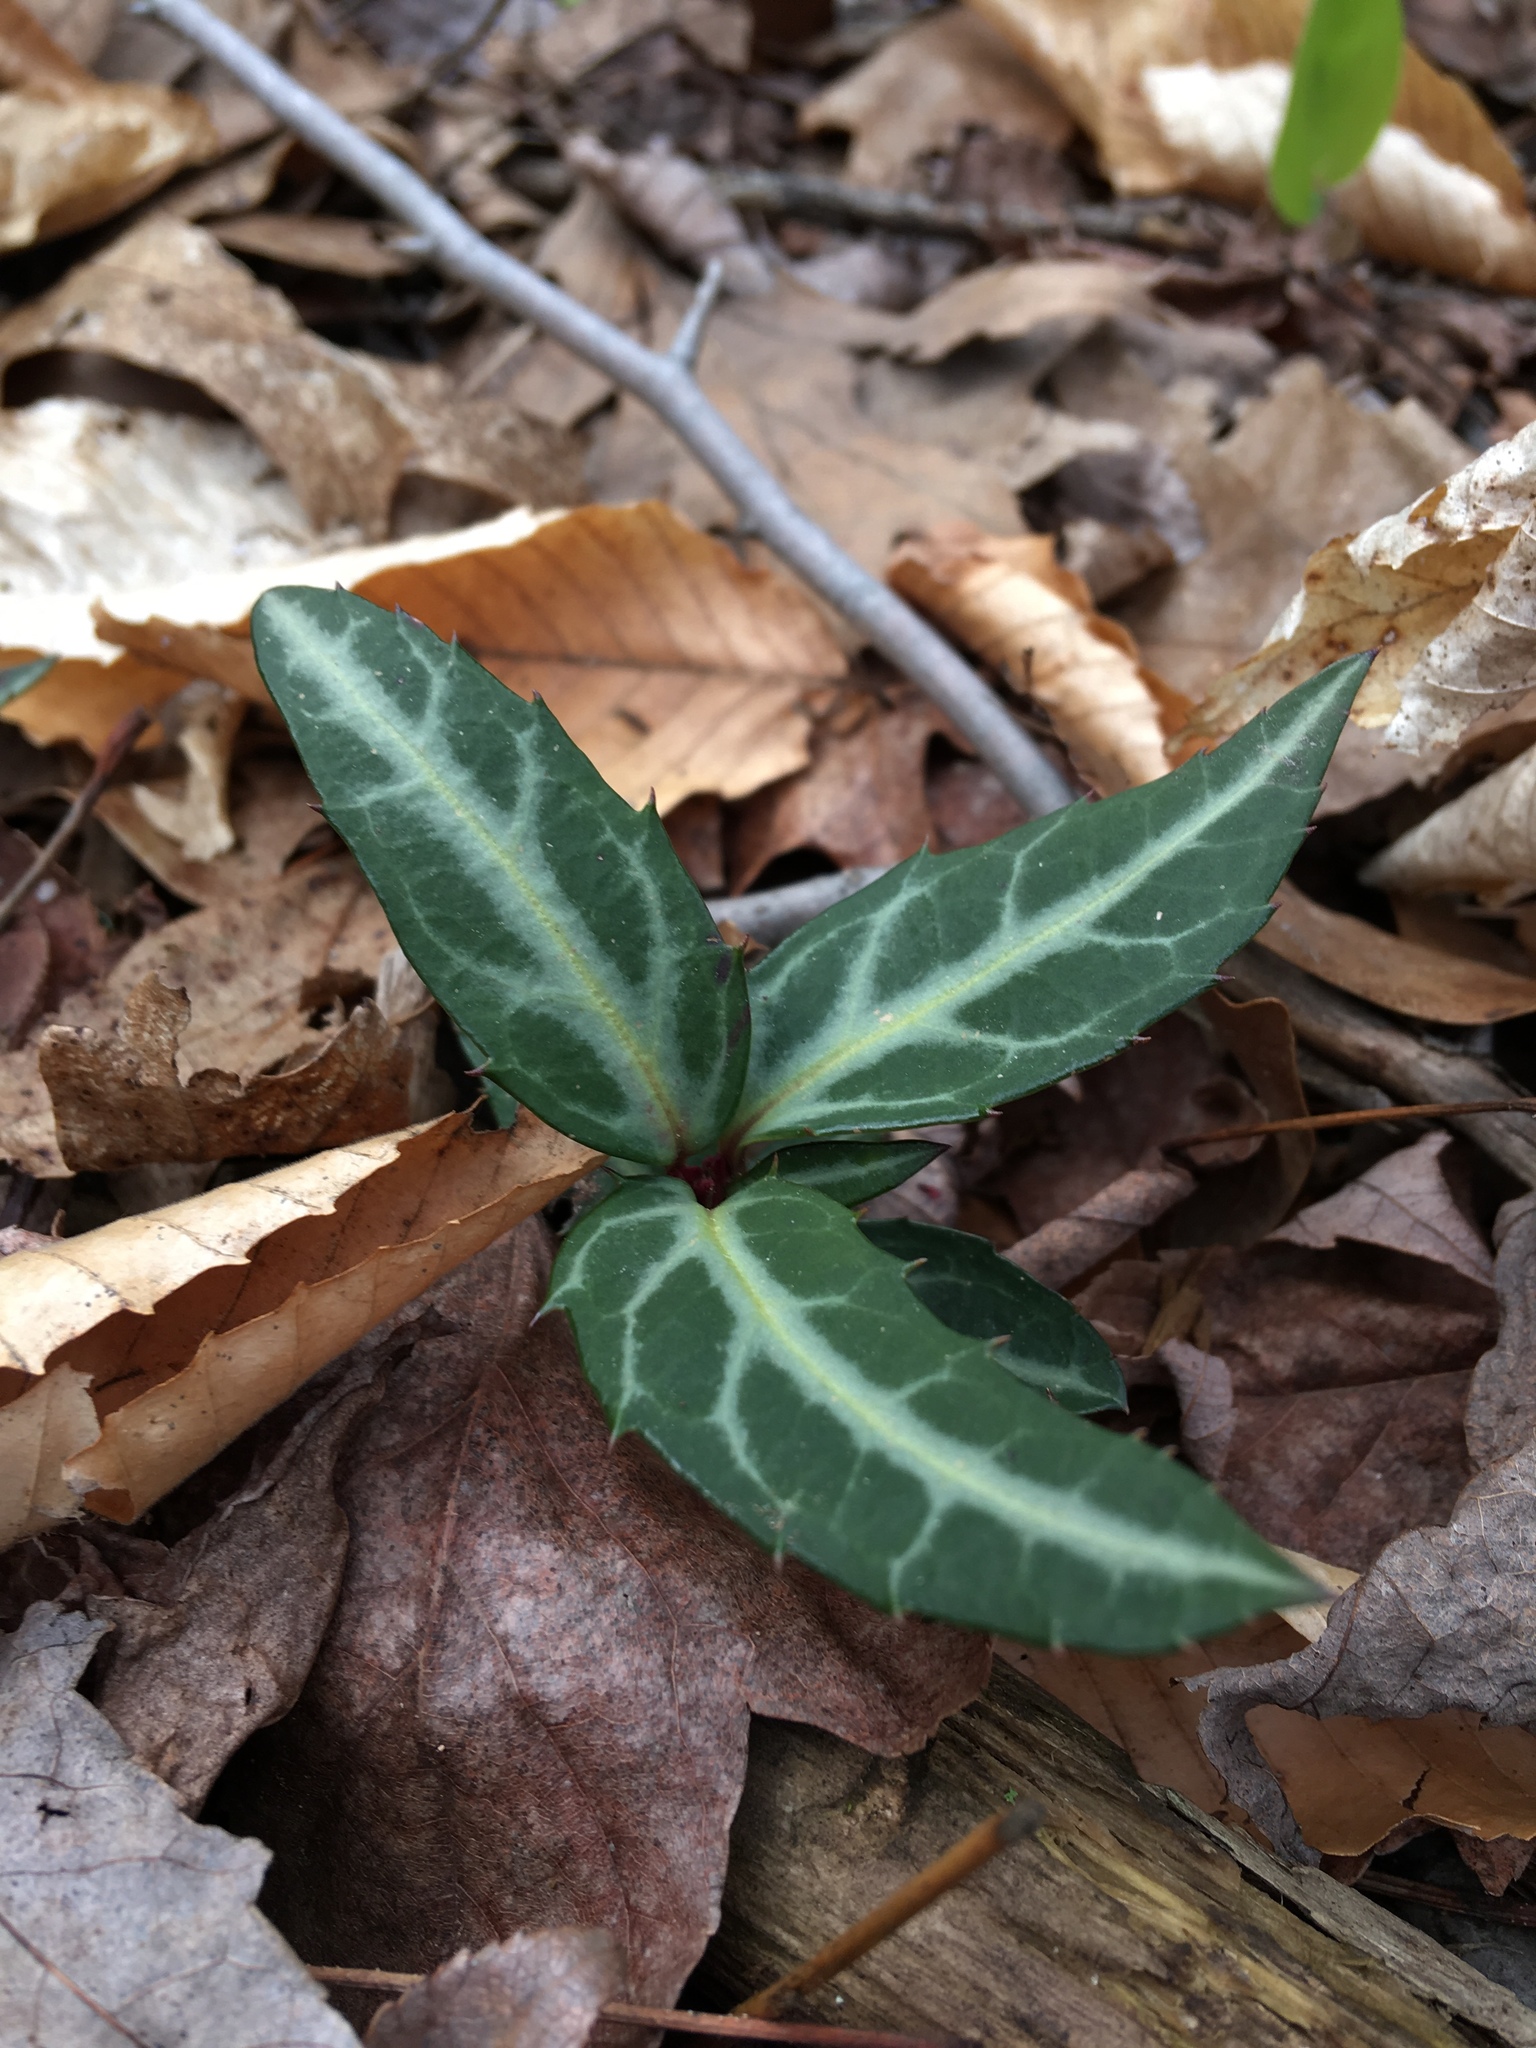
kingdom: Plantae
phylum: Tracheophyta
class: Magnoliopsida
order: Ericales
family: Ericaceae
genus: Chimaphila
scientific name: Chimaphila maculata
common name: Spotted pipsissewa
